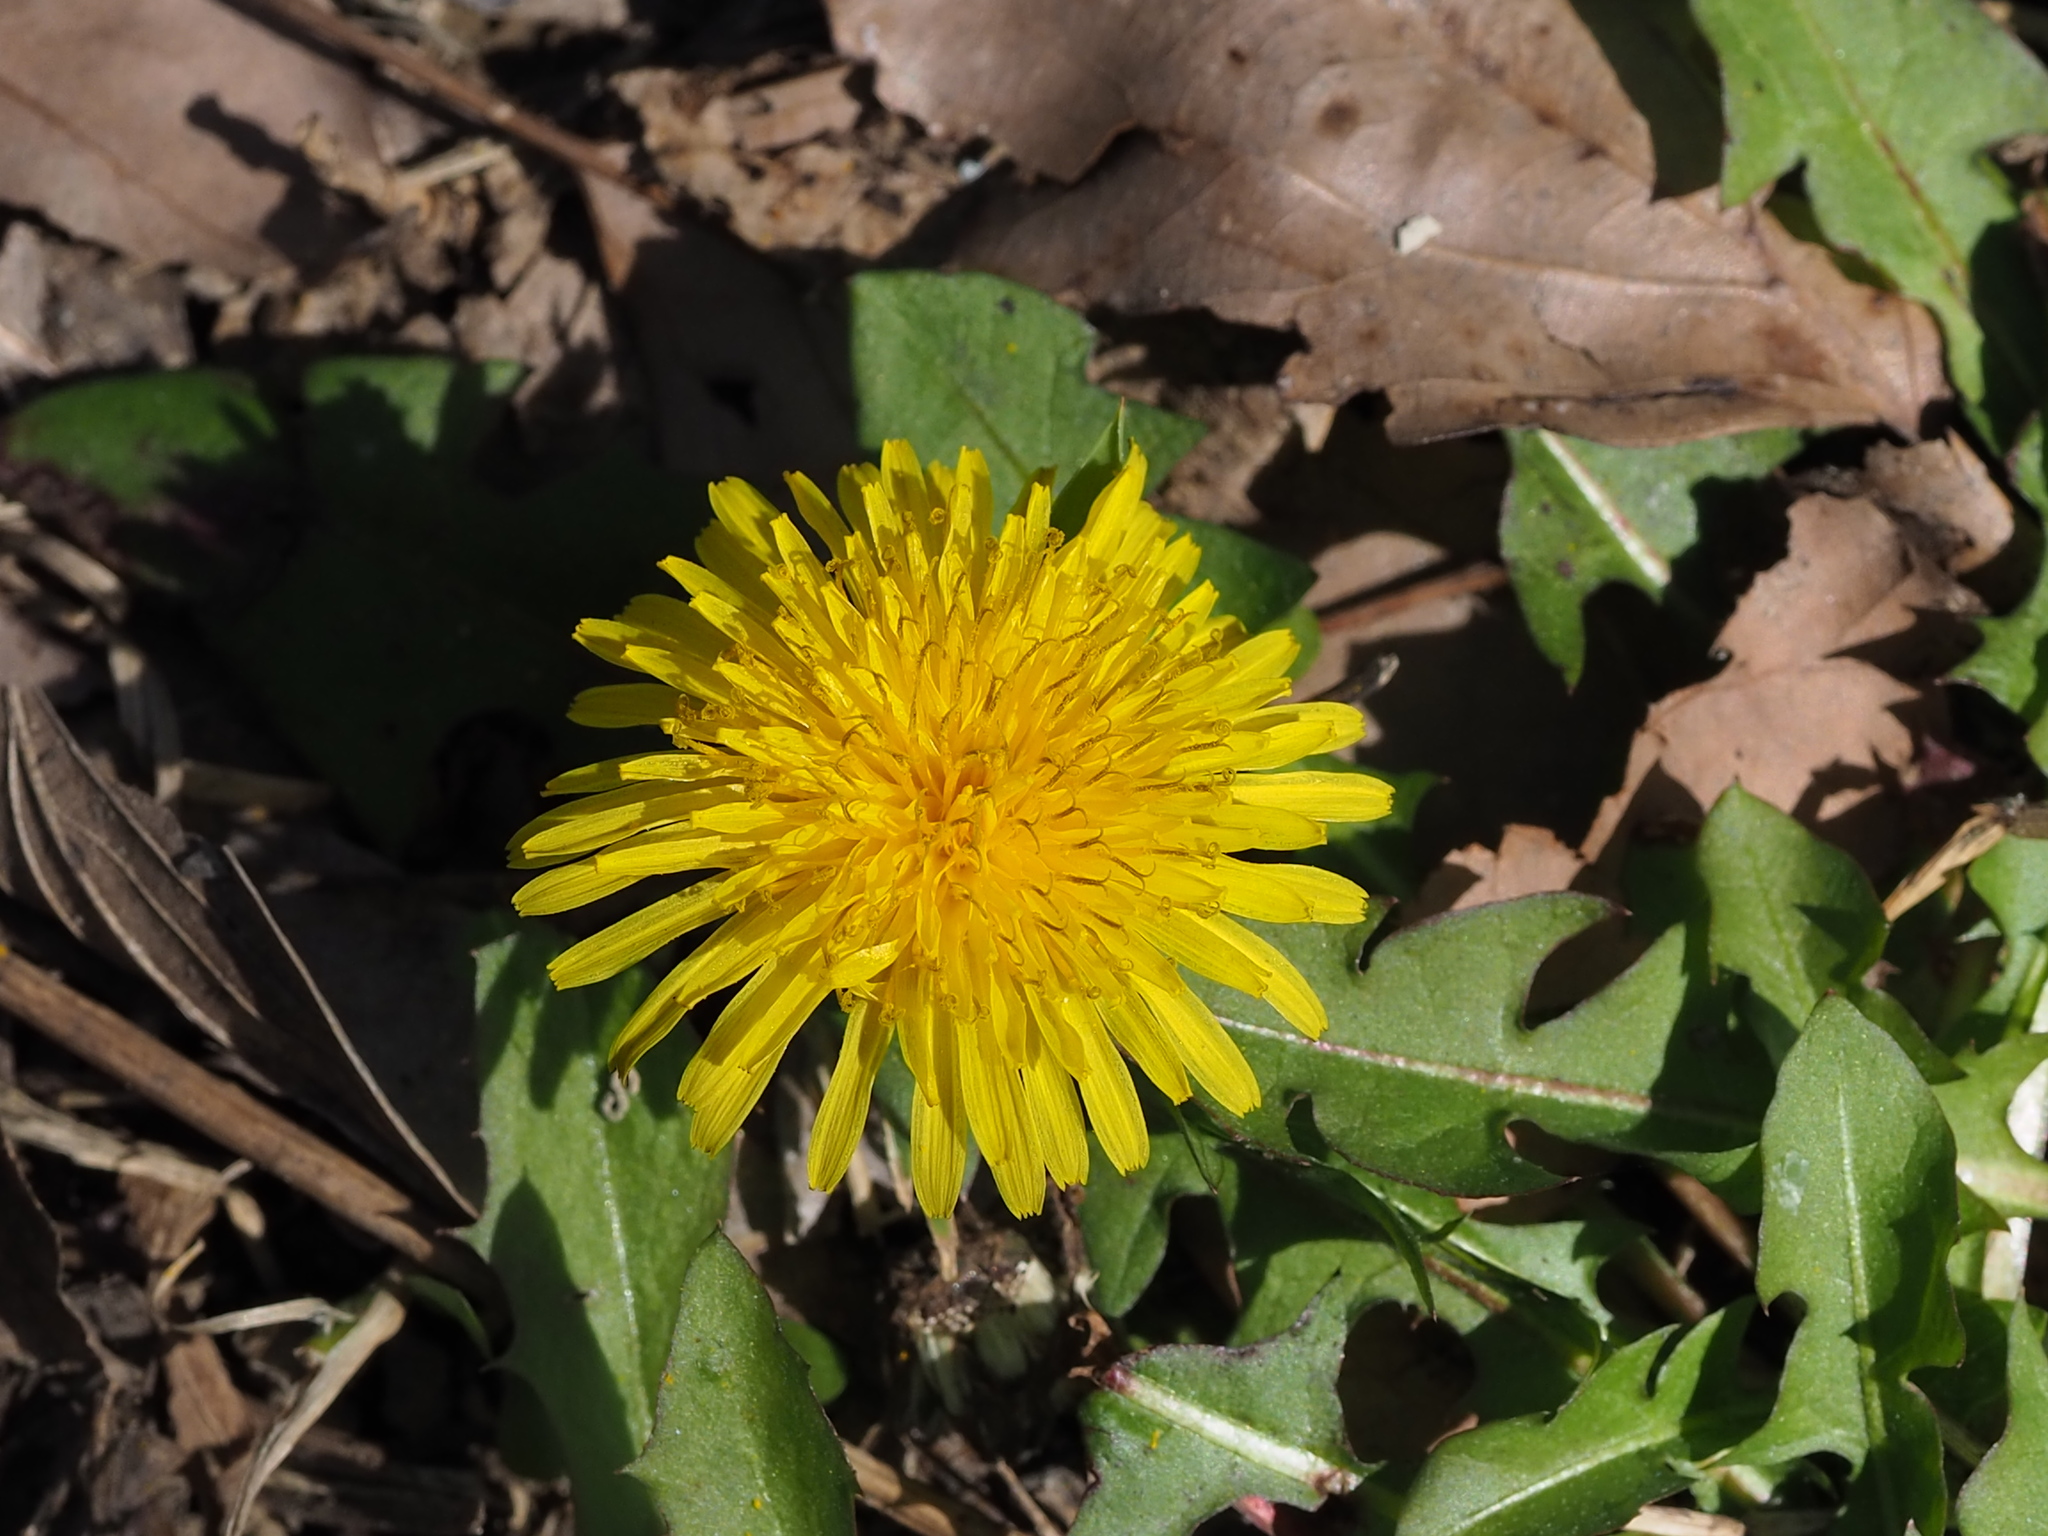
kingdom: Plantae
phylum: Tracheophyta
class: Magnoliopsida
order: Asterales
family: Asteraceae
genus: Taraxacum
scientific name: Taraxacum officinale
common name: Common dandelion
